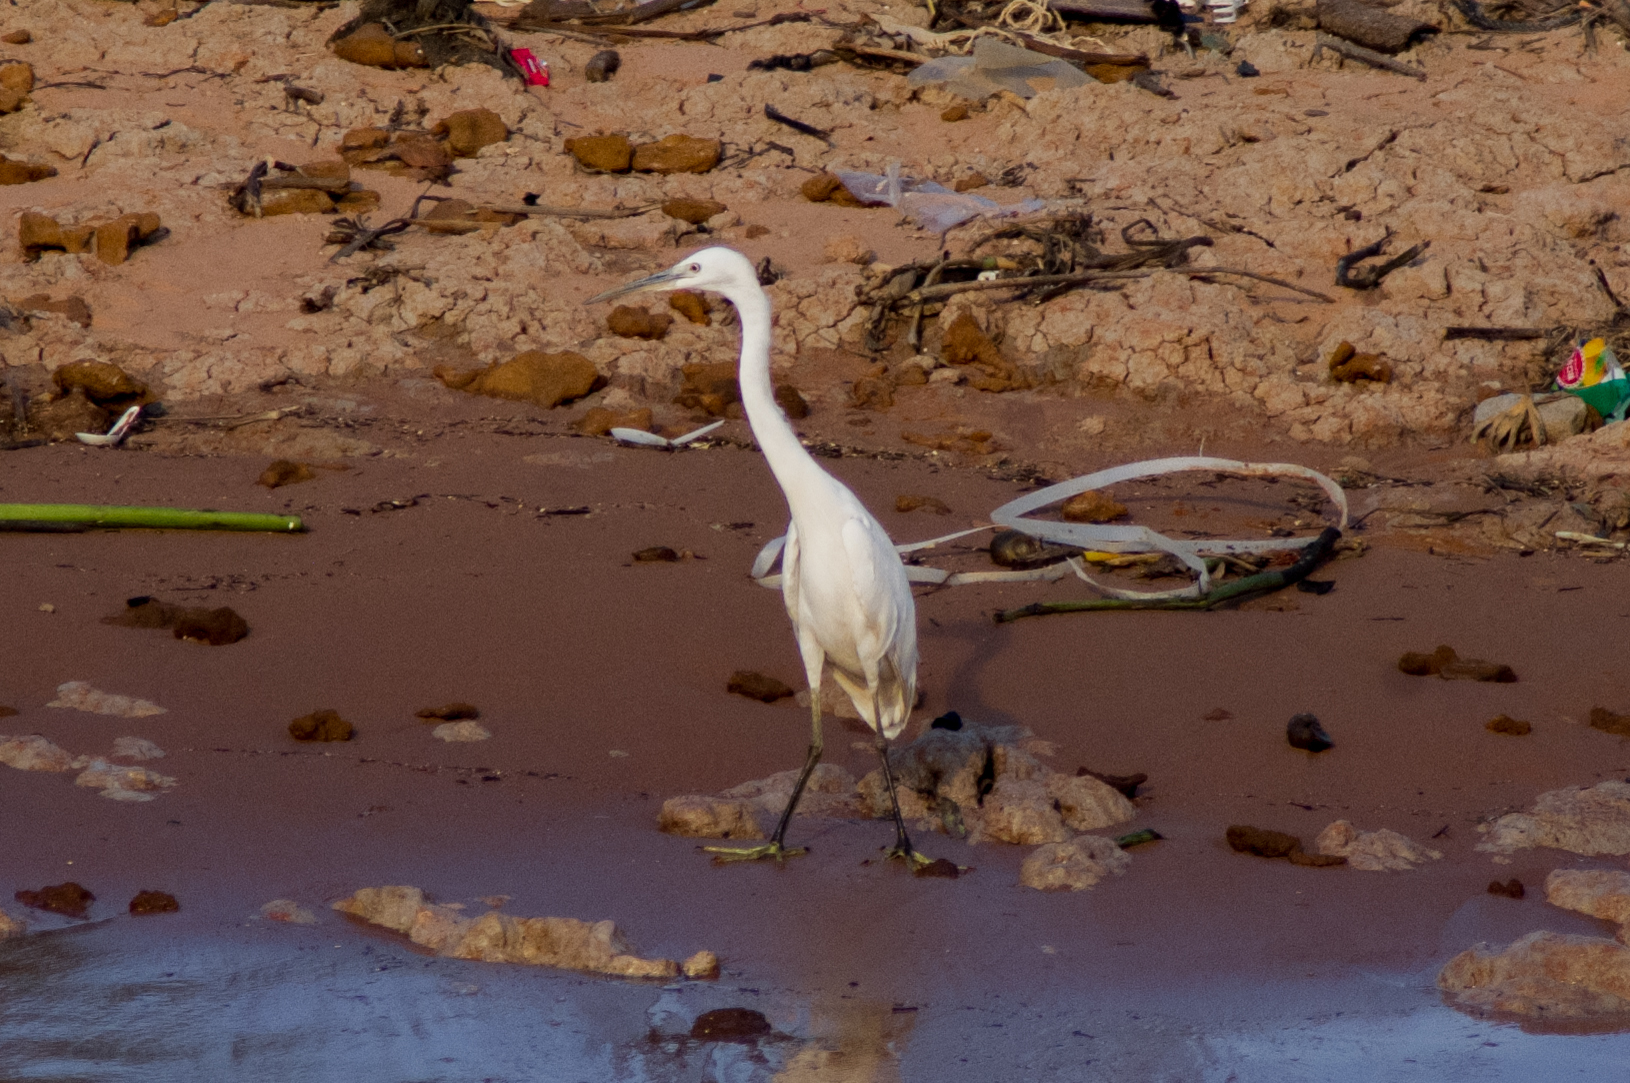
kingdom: Animalia
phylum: Chordata
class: Aves
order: Pelecaniformes
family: Ardeidae
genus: Egretta
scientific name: Egretta garzetta
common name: Little egret
